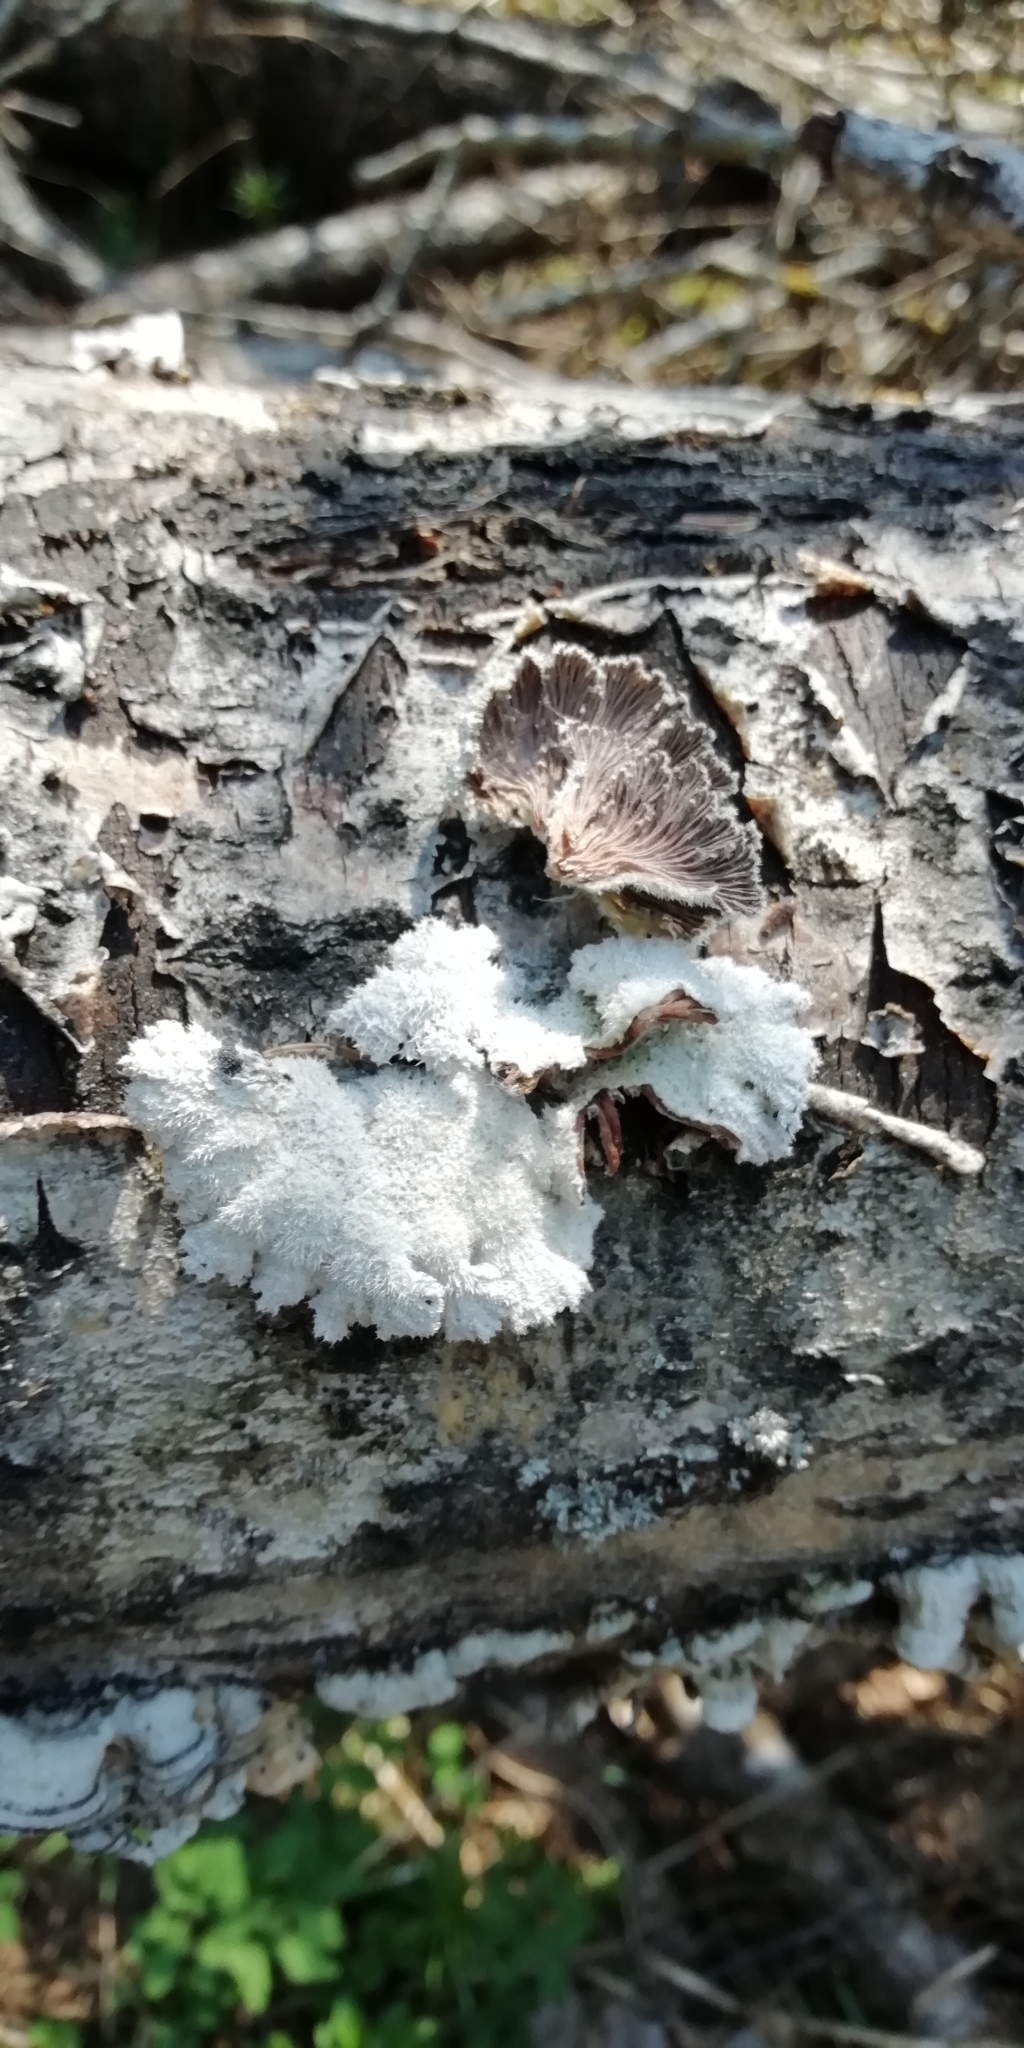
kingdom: Fungi
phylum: Basidiomycota
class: Agaricomycetes
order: Agaricales
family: Schizophyllaceae
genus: Schizophyllum
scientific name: Schizophyllum commune
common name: Common porecrust
